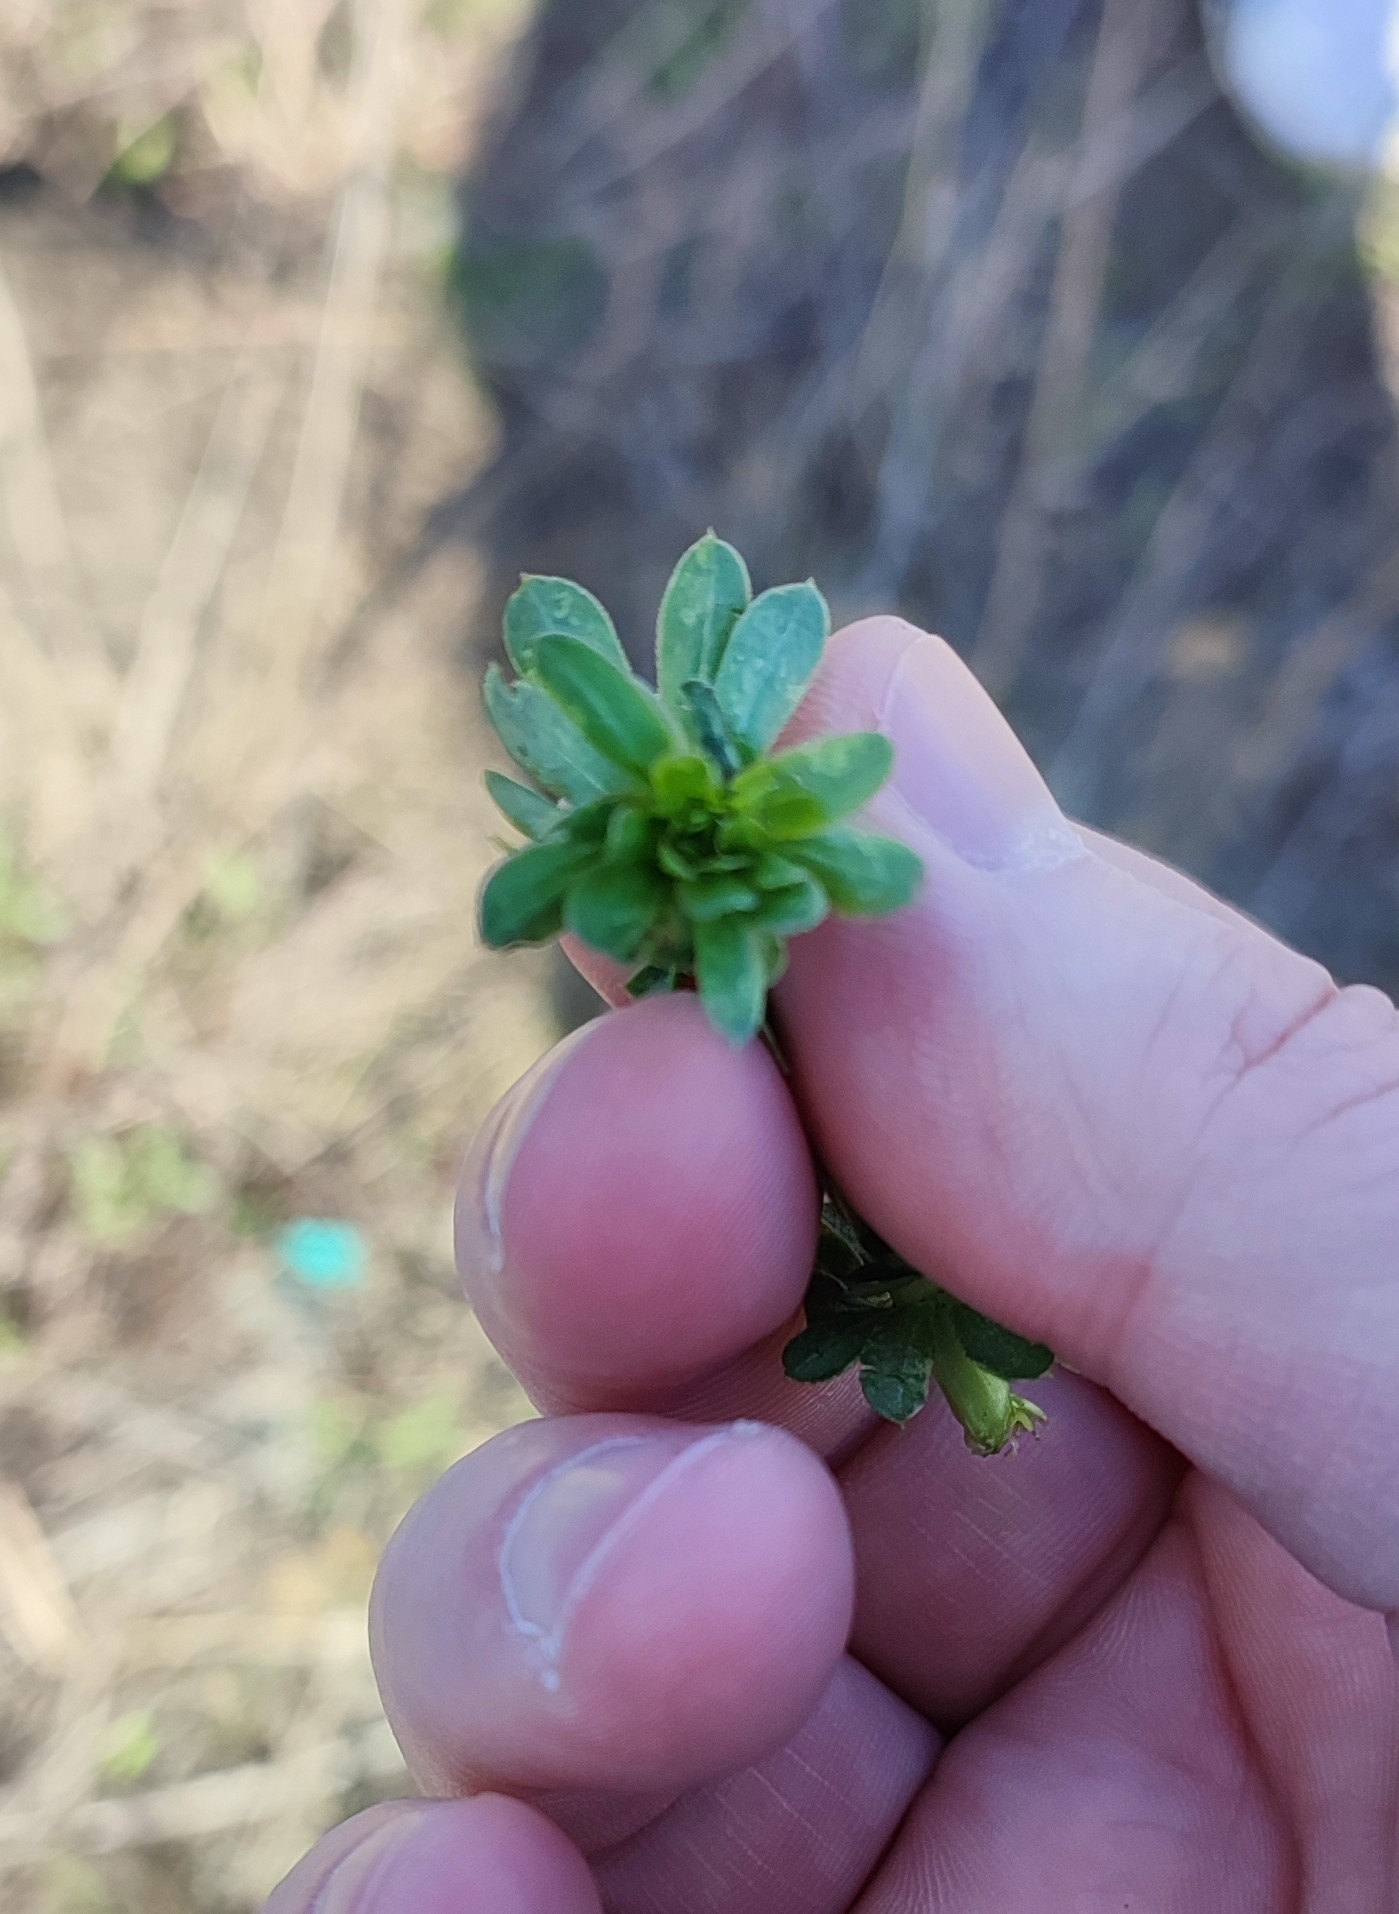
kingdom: Plantae
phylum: Tracheophyta
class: Magnoliopsida
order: Gentianales
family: Rubiaceae
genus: Galium
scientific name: Galium mollugo
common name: Hedge bedstraw
